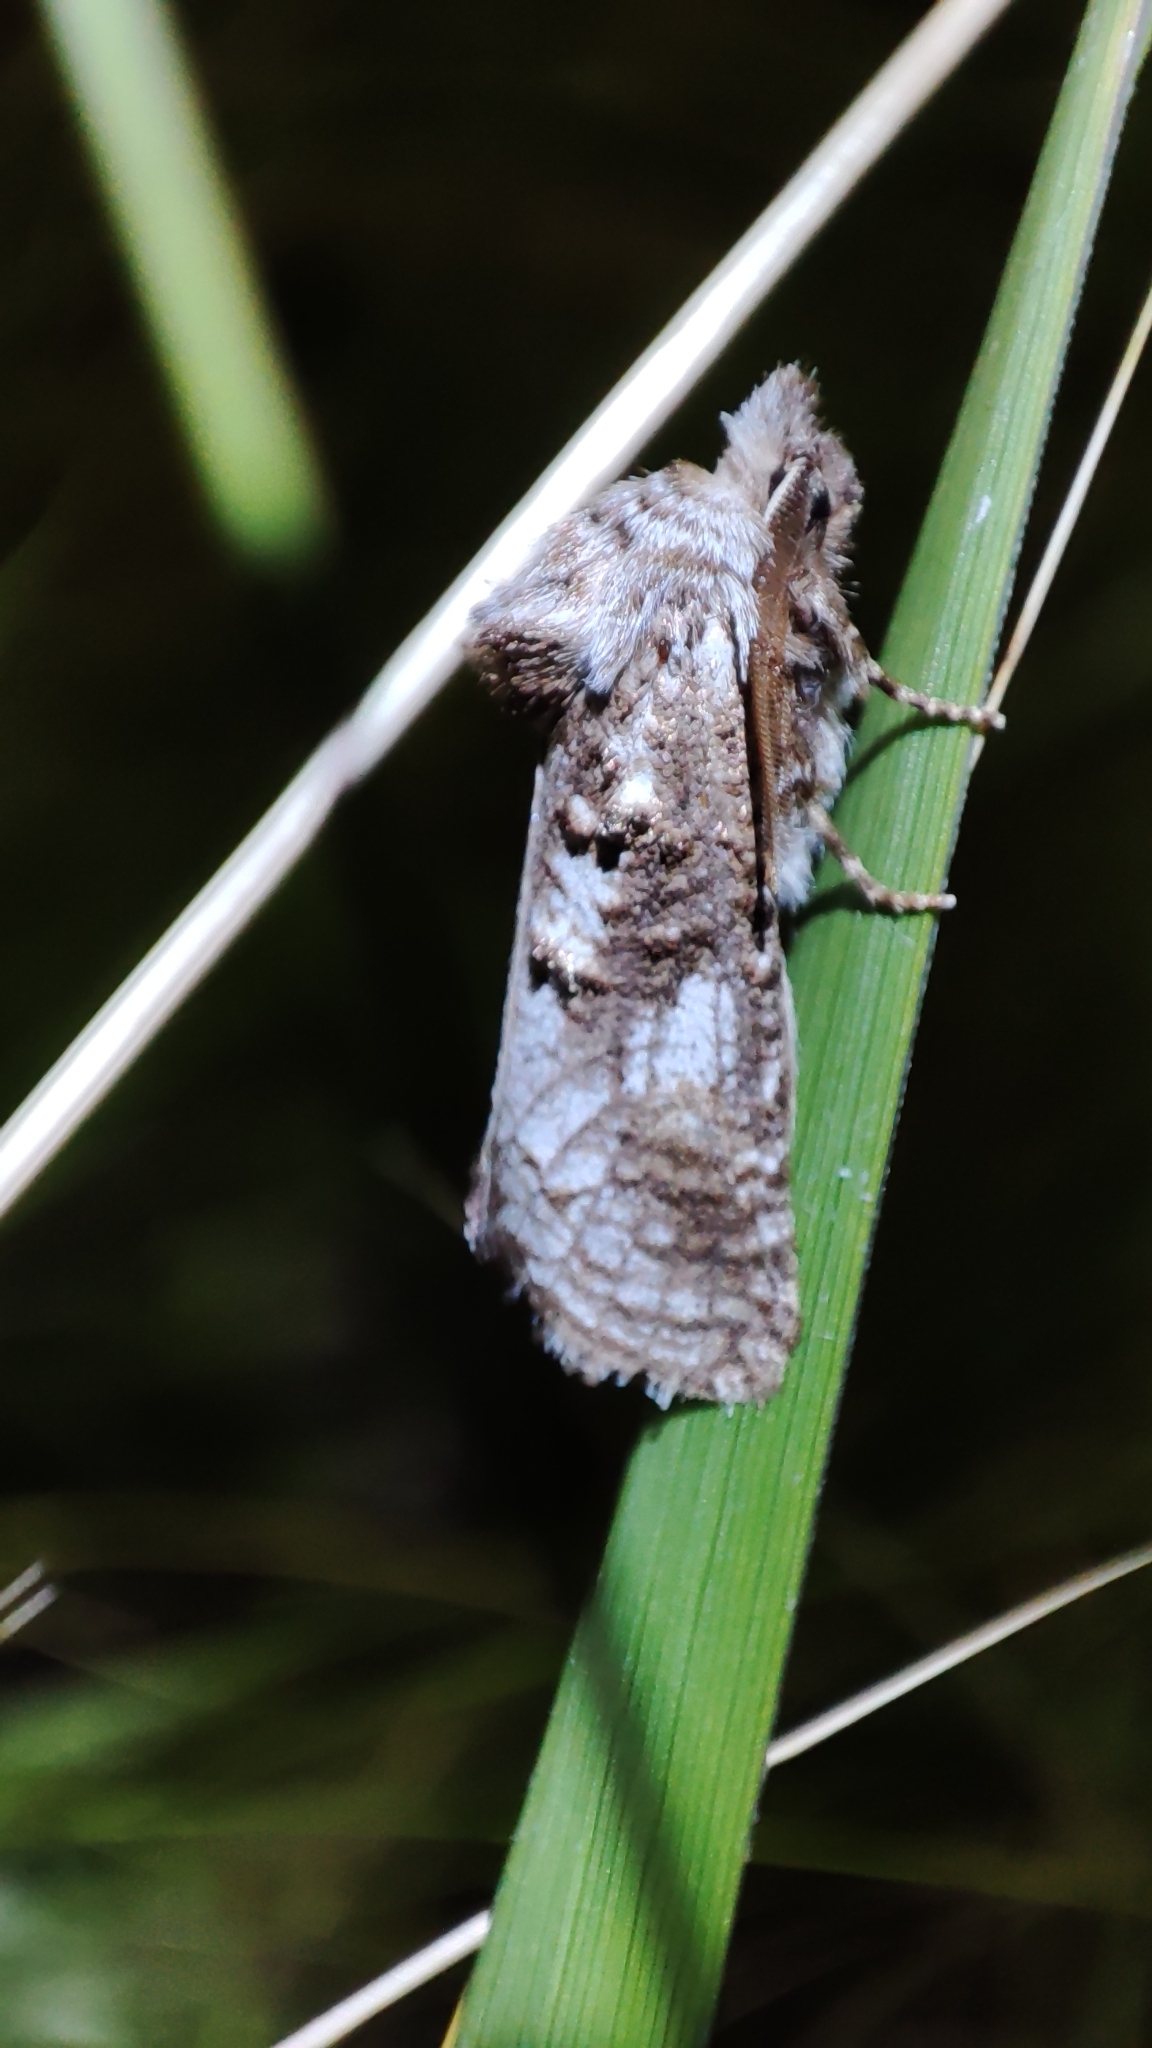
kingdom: Animalia
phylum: Arthropoda
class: Insecta
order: Lepidoptera
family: Cossidae
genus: Catopta
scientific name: Catopta perunovi
